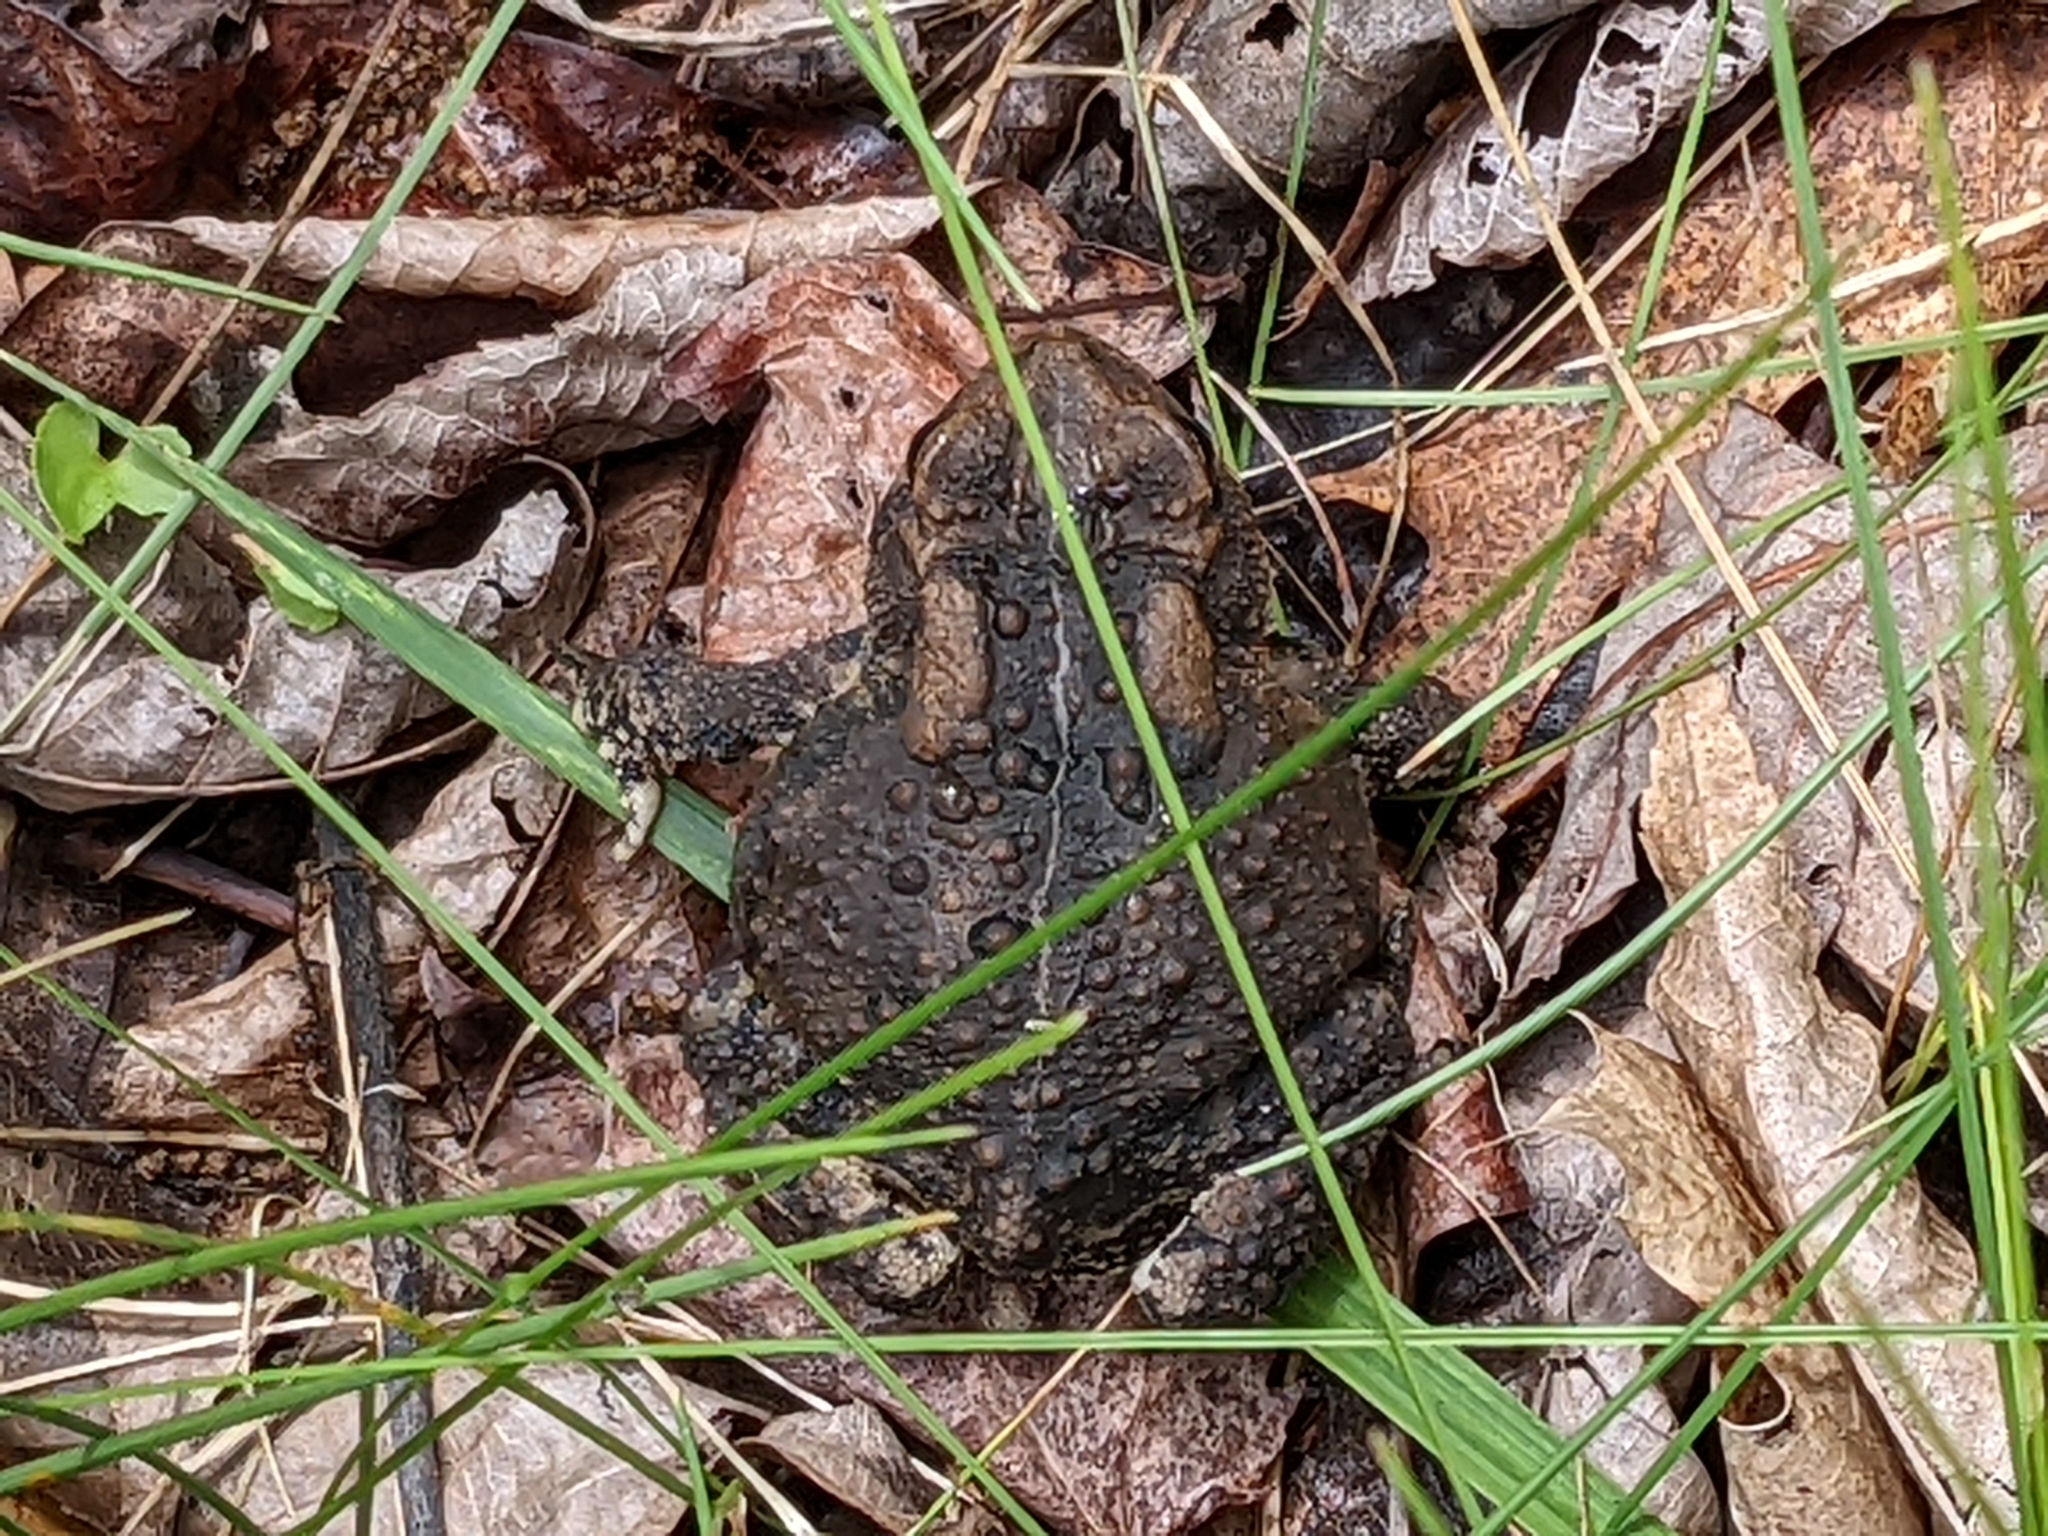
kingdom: Animalia
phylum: Chordata
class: Amphibia
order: Anura
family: Bufonidae
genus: Anaxyrus
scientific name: Anaxyrus americanus
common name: American toad
